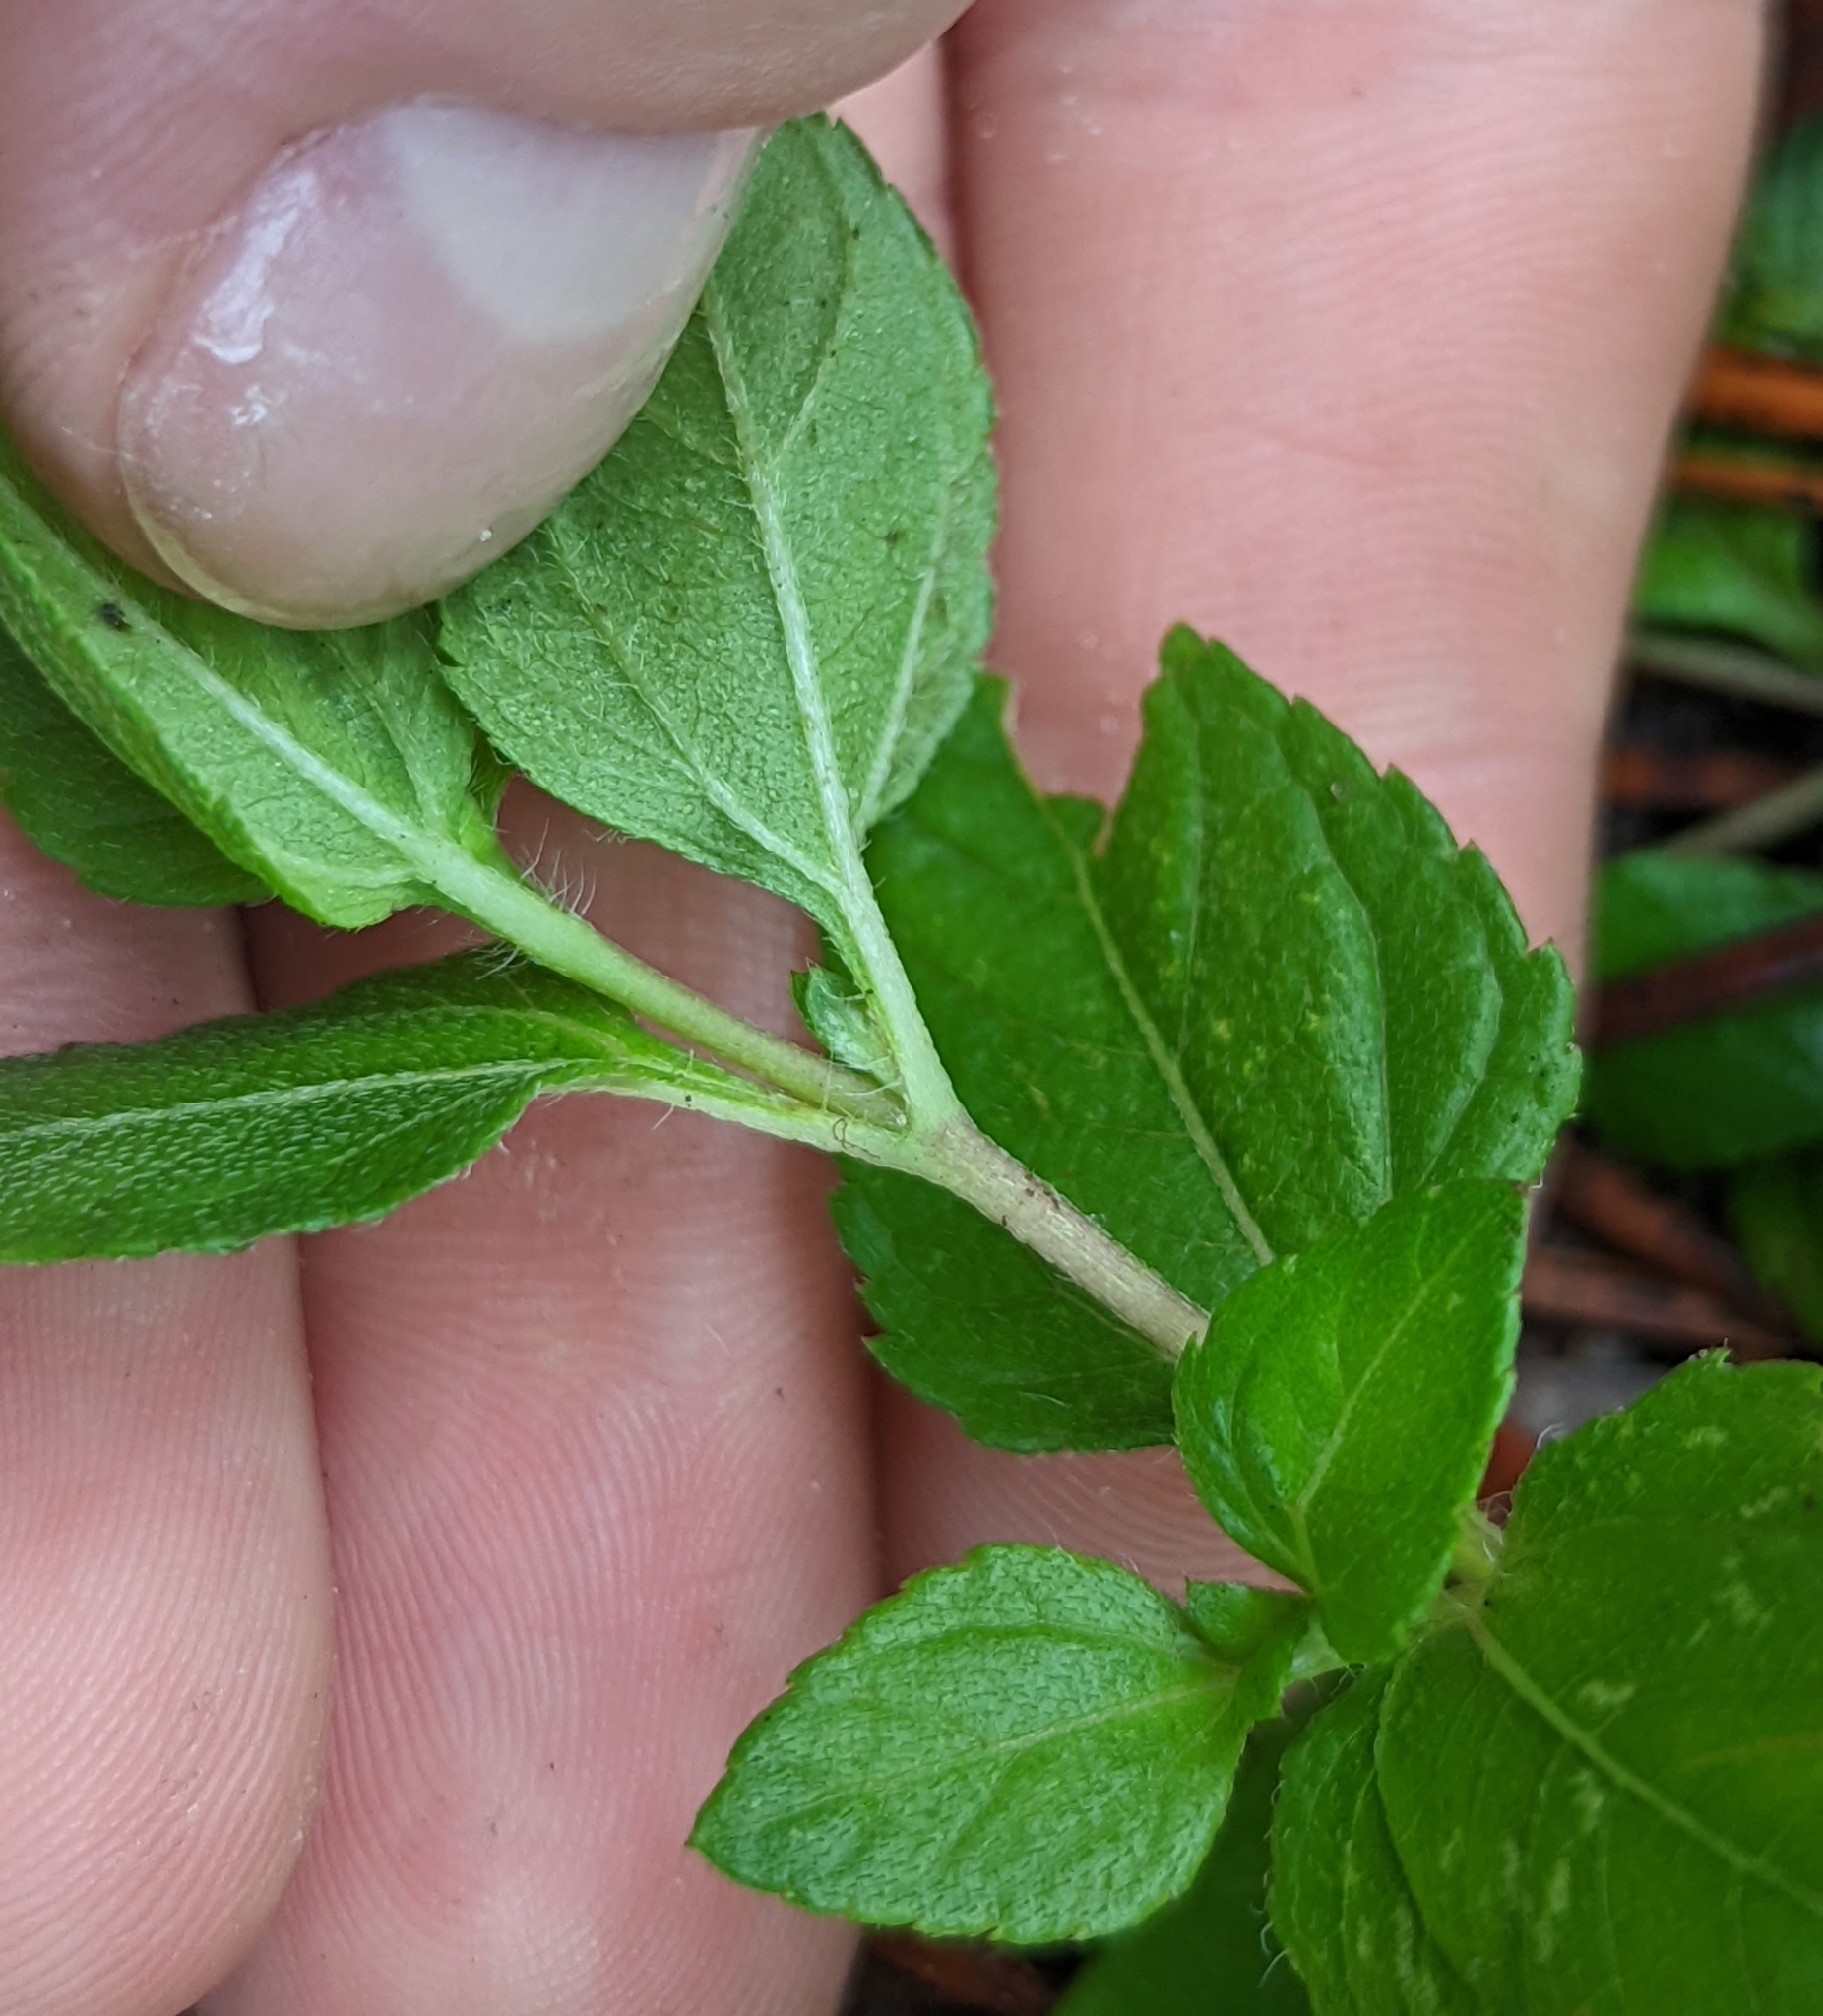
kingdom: Plantae
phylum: Tracheophyta
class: Magnoliopsida
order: Asterales
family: Asteraceae
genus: Calyptocarpus
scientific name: Calyptocarpus vialis
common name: Straggler daisy
